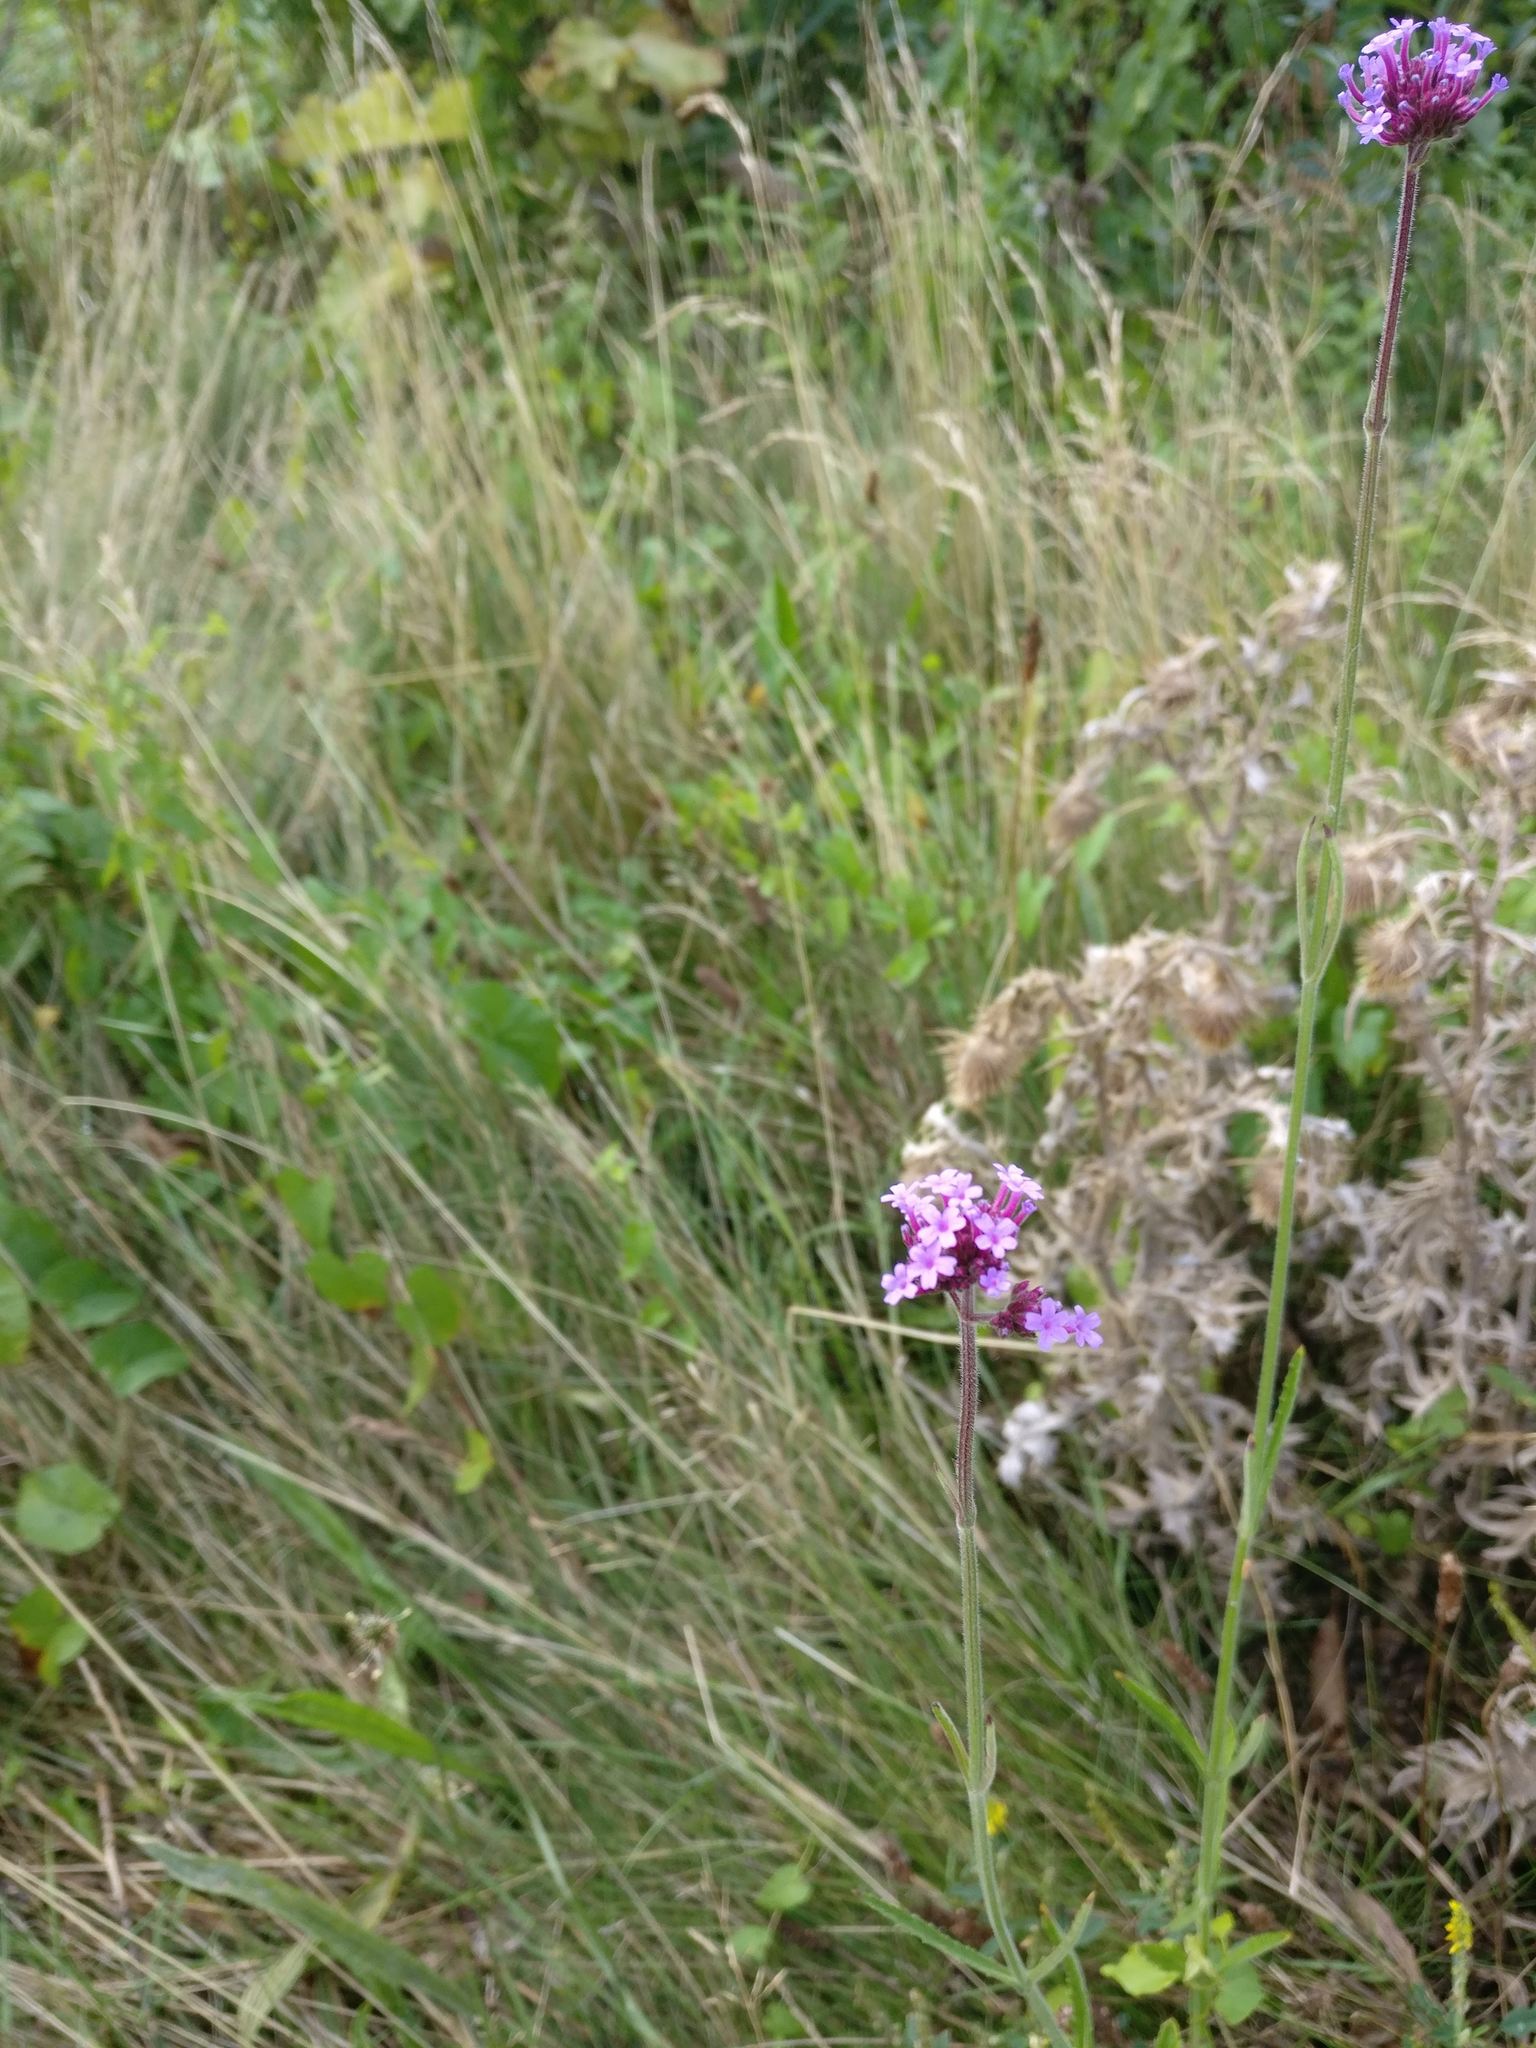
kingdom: Plantae
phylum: Tracheophyta
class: Magnoliopsida
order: Lamiales
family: Verbenaceae
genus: Verbena
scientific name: Verbena bonariensis
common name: Purpletop vervain
